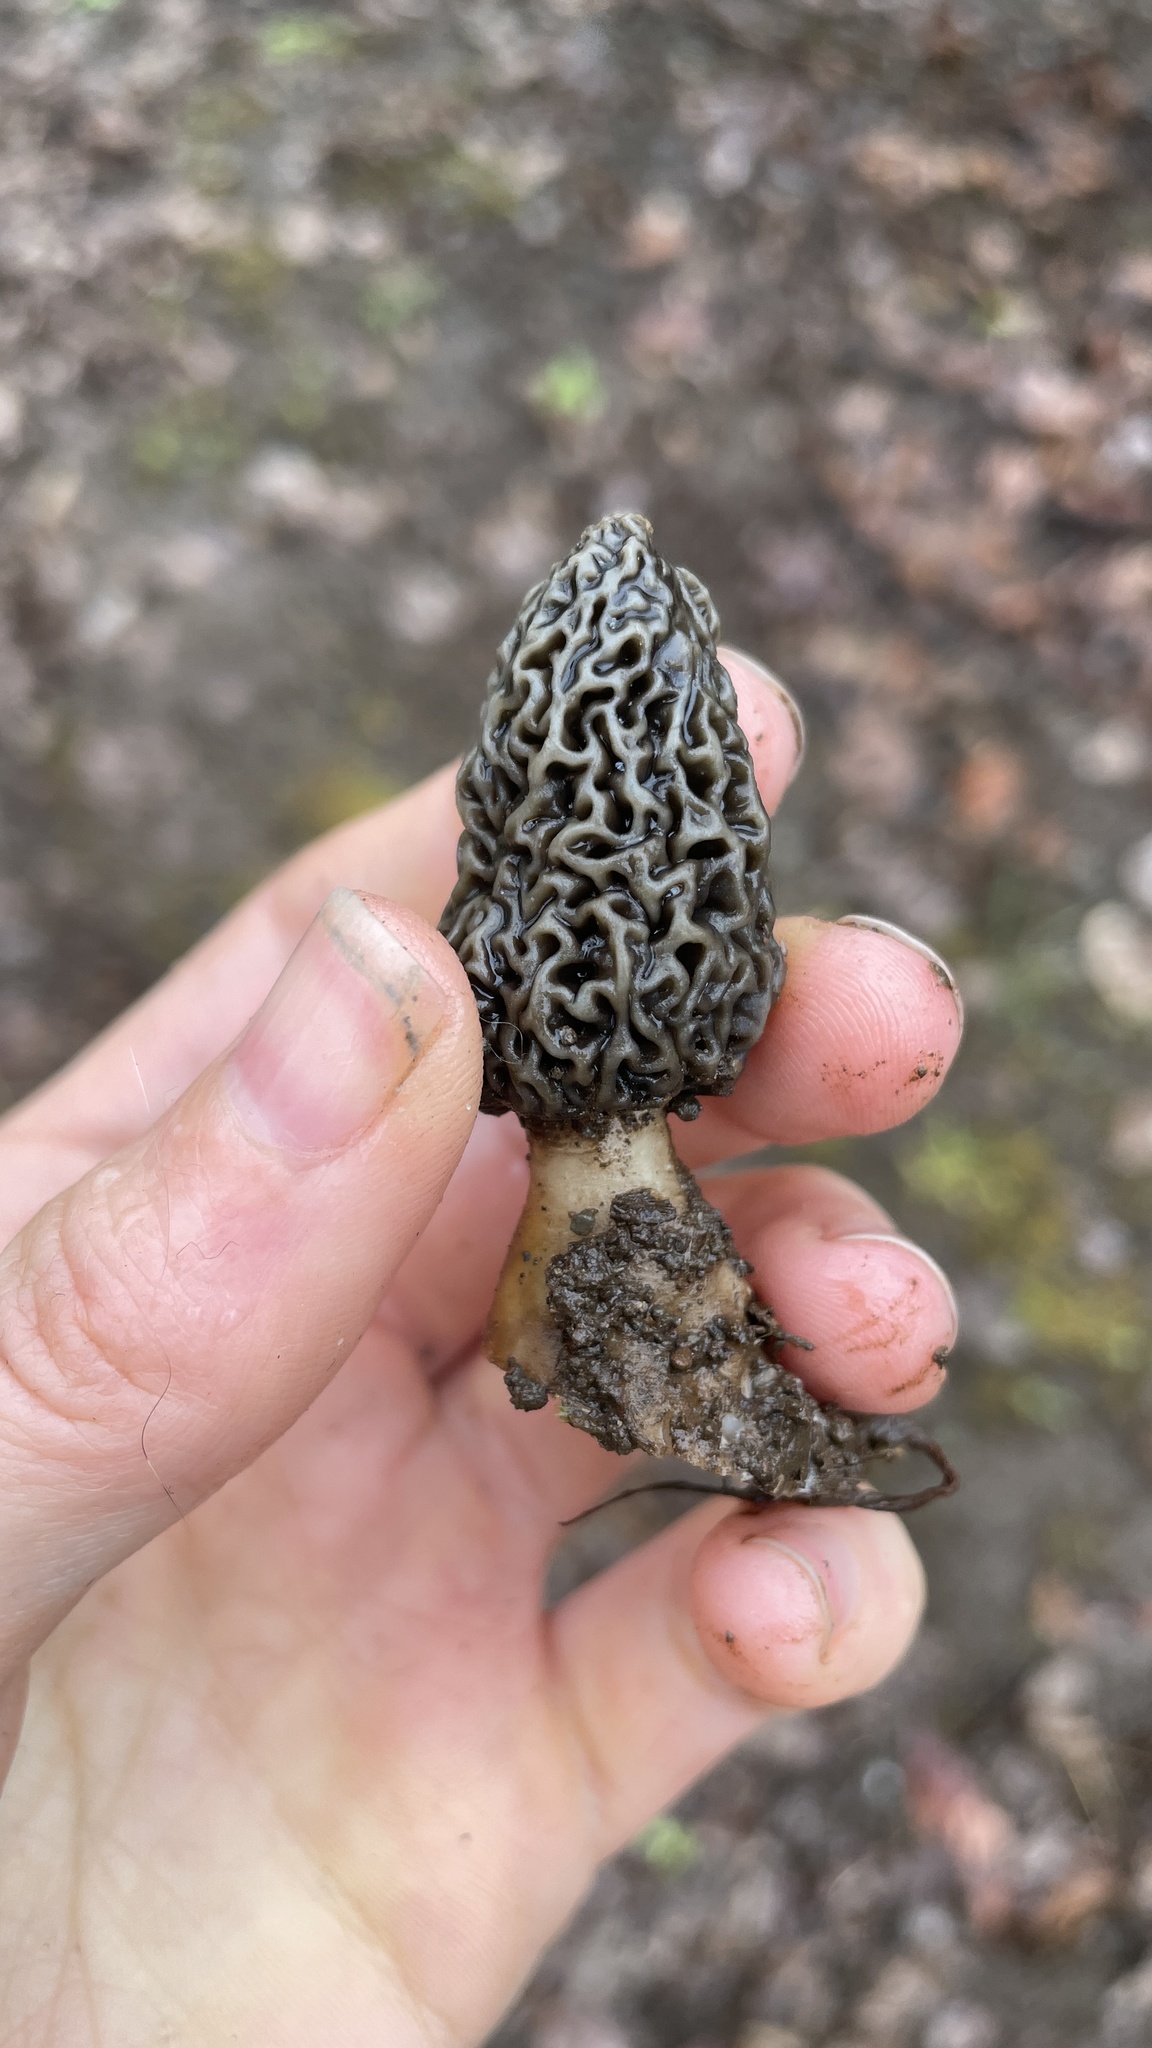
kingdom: Fungi
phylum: Ascomycota
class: Pezizomycetes
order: Pezizales
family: Morchellaceae
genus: Morchella
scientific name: Morchella americana
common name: White morel
